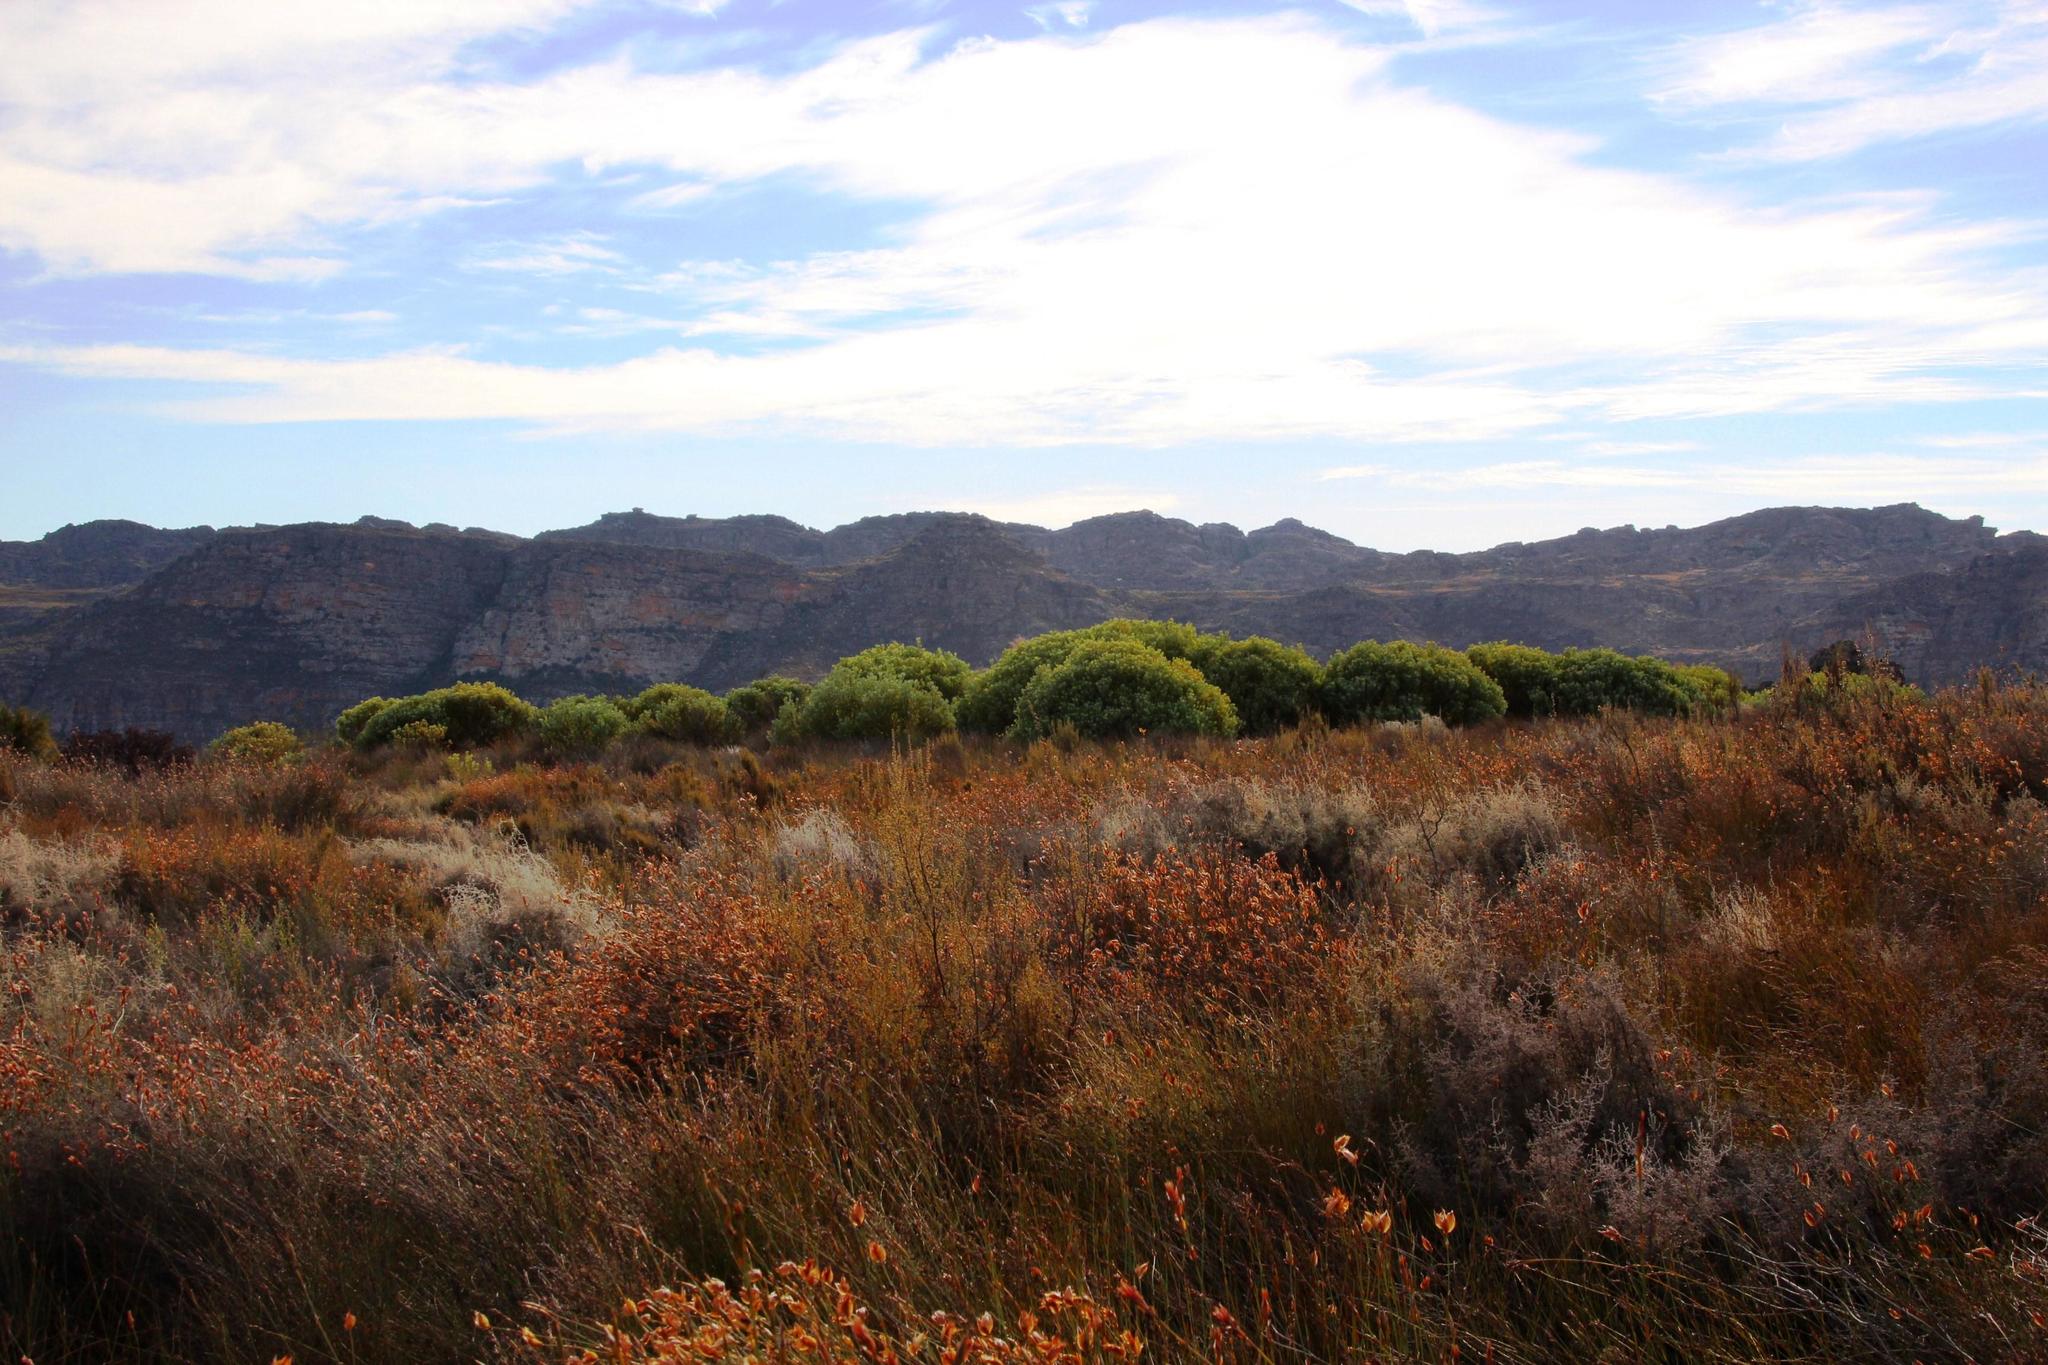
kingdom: Plantae
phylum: Tracheophyta
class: Magnoliopsida
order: Proteales
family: Proteaceae
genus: Leucadendron
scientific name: Leucadendron loranthifolium
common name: Green-flower sunbush
